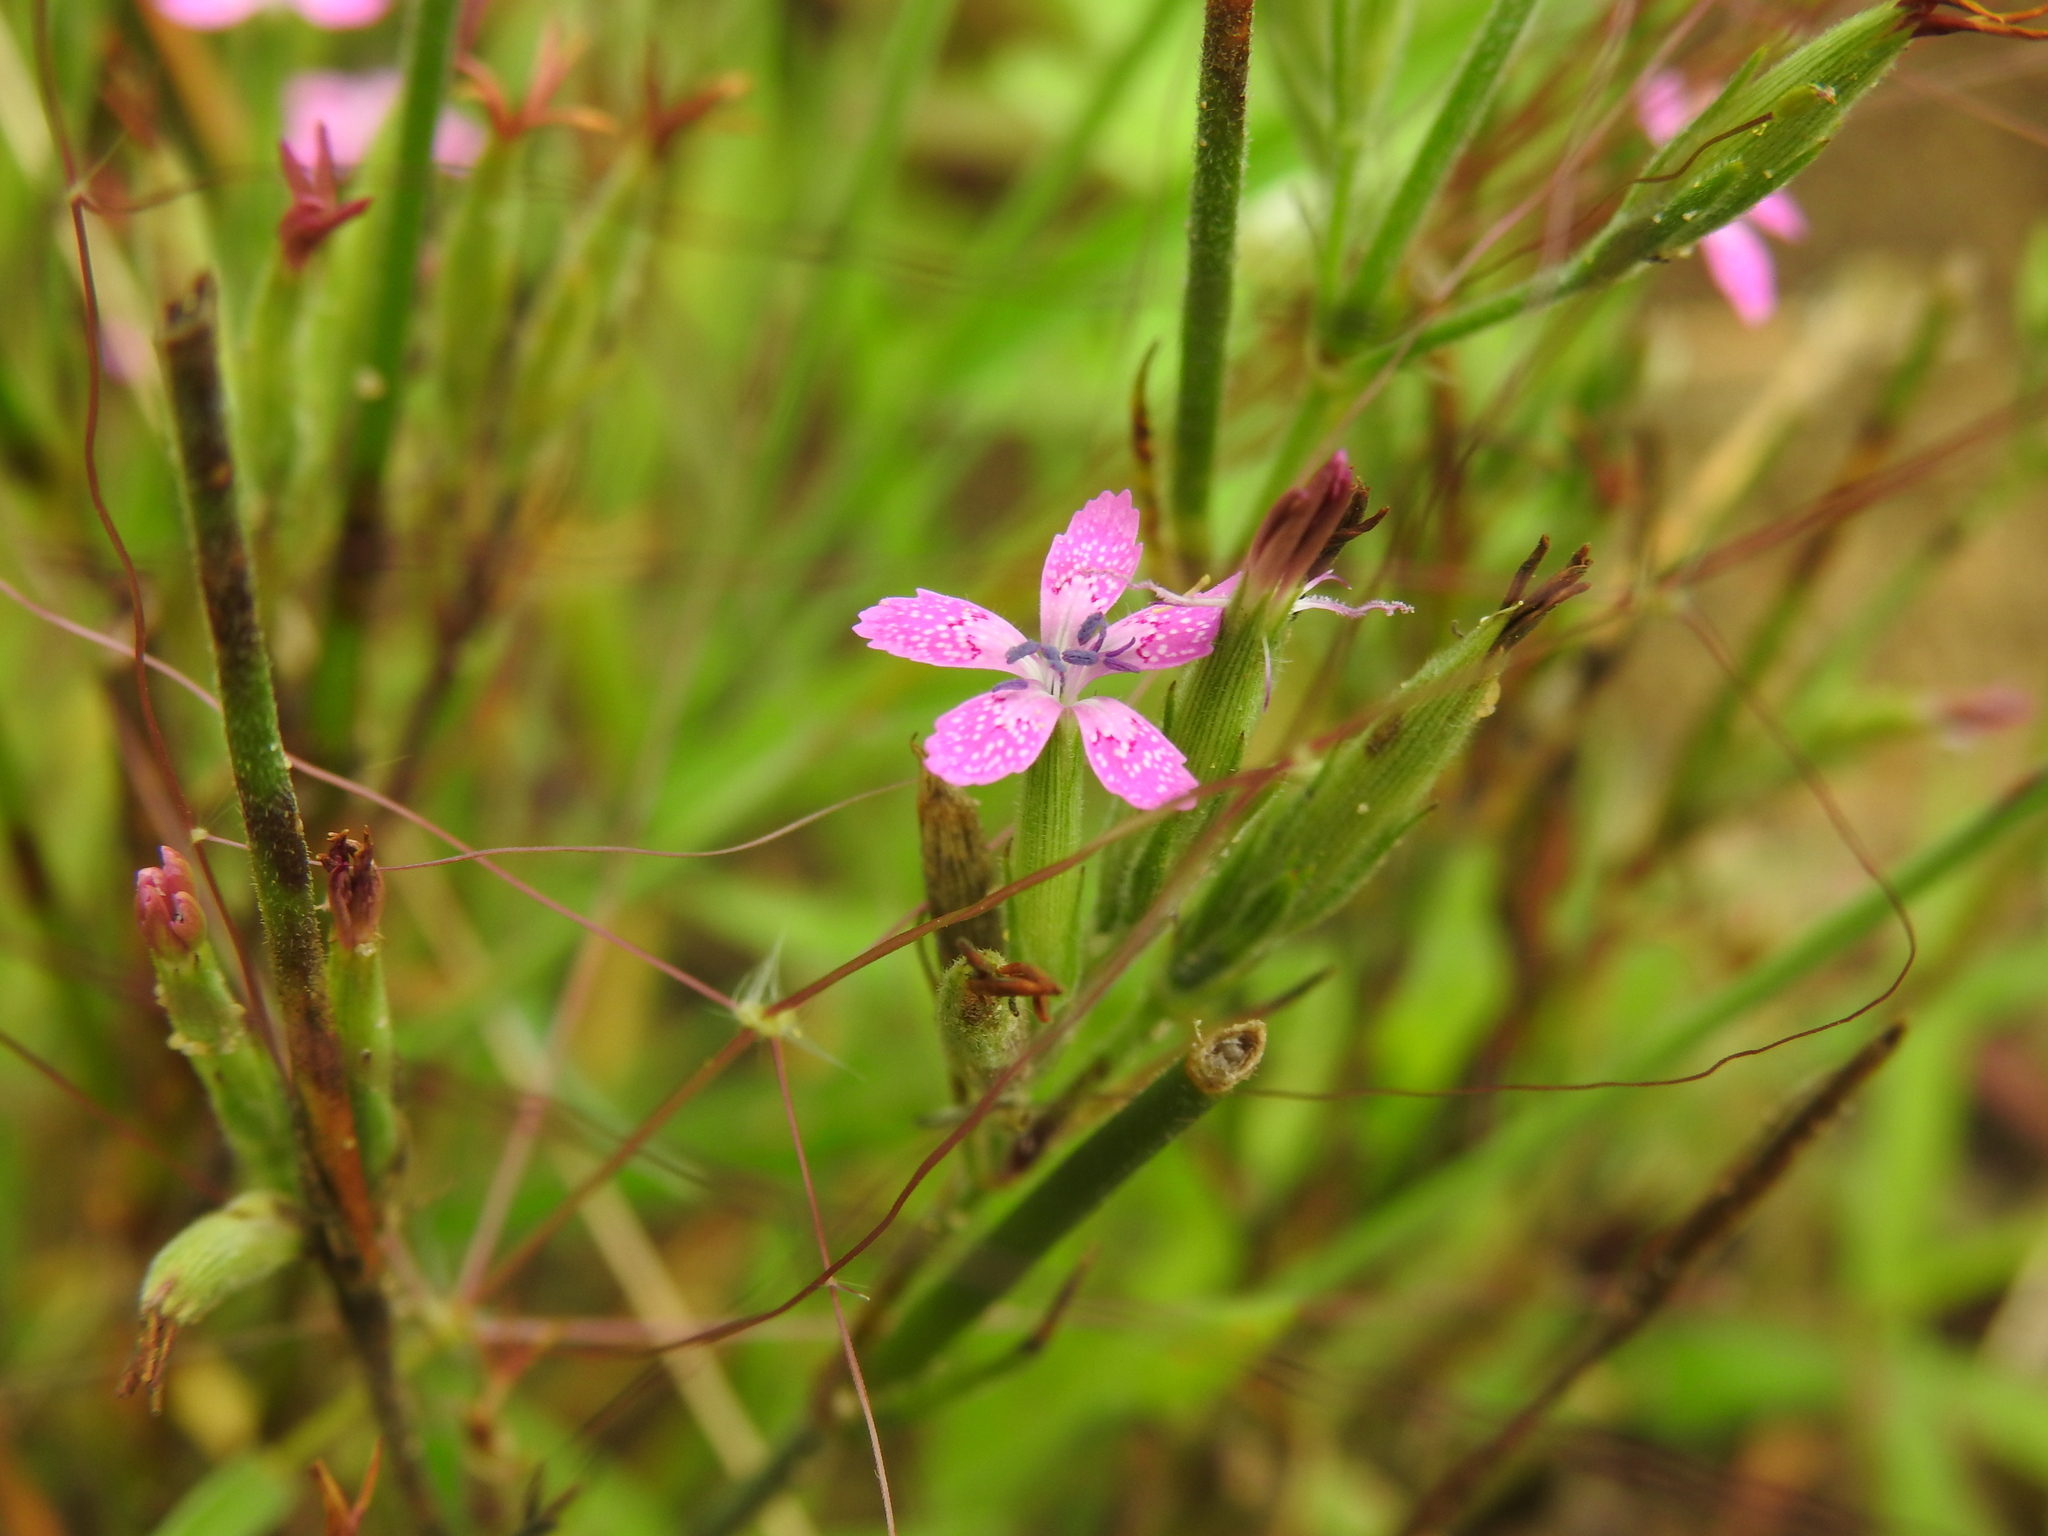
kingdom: Plantae
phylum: Tracheophyta
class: Magnoliopsida
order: Caryophyllales
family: Caryophyllaceae
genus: Dianthus
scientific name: Dianthus armeria
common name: Deptford pink
